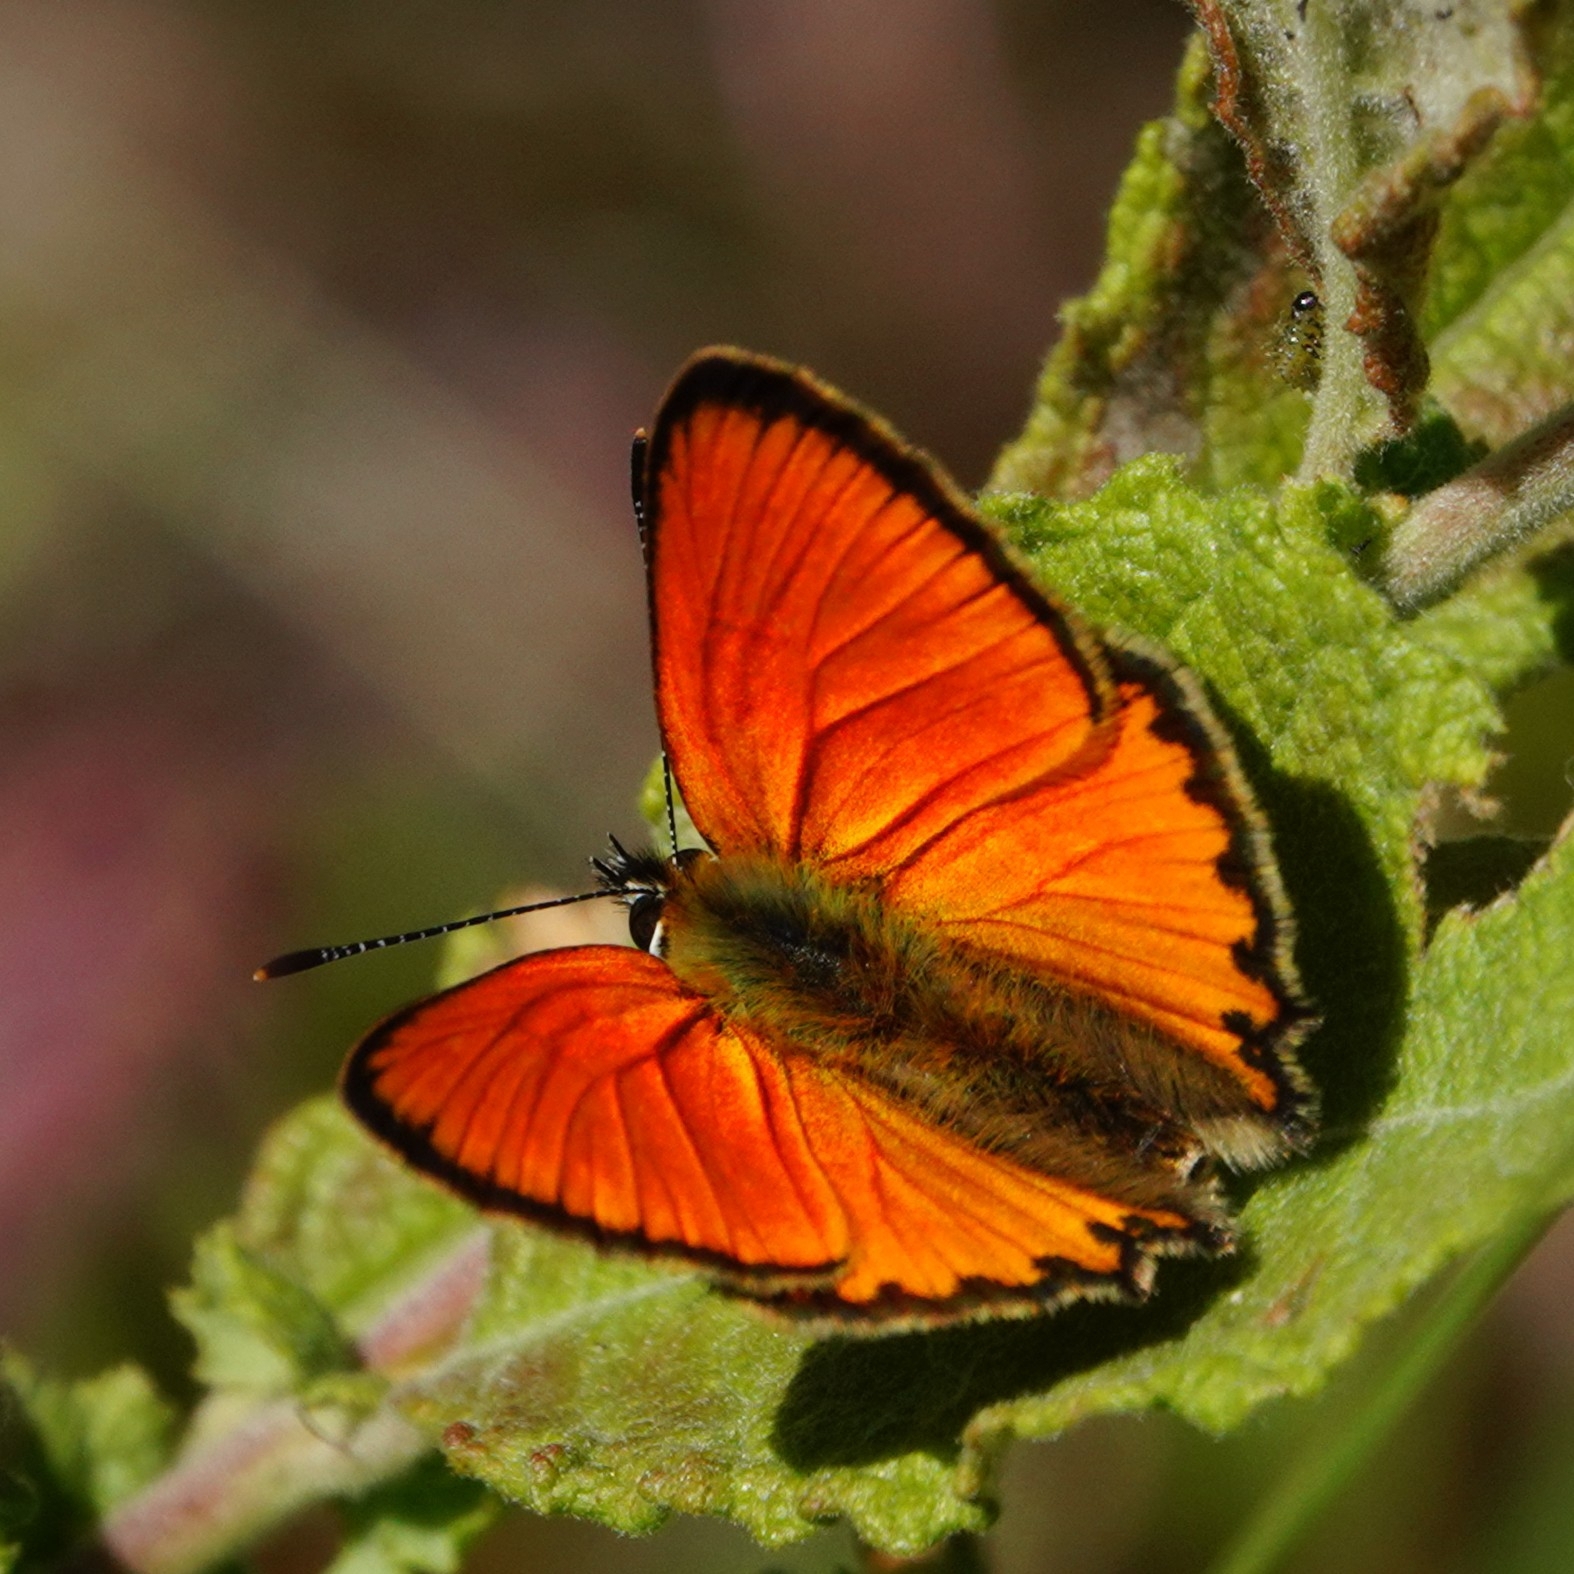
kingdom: Animalia
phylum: Arthropoda
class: Insecta
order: Lepidoptera
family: Lycaenidae
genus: Lycaena
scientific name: Lycaena virgaureae
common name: Scarce copper
